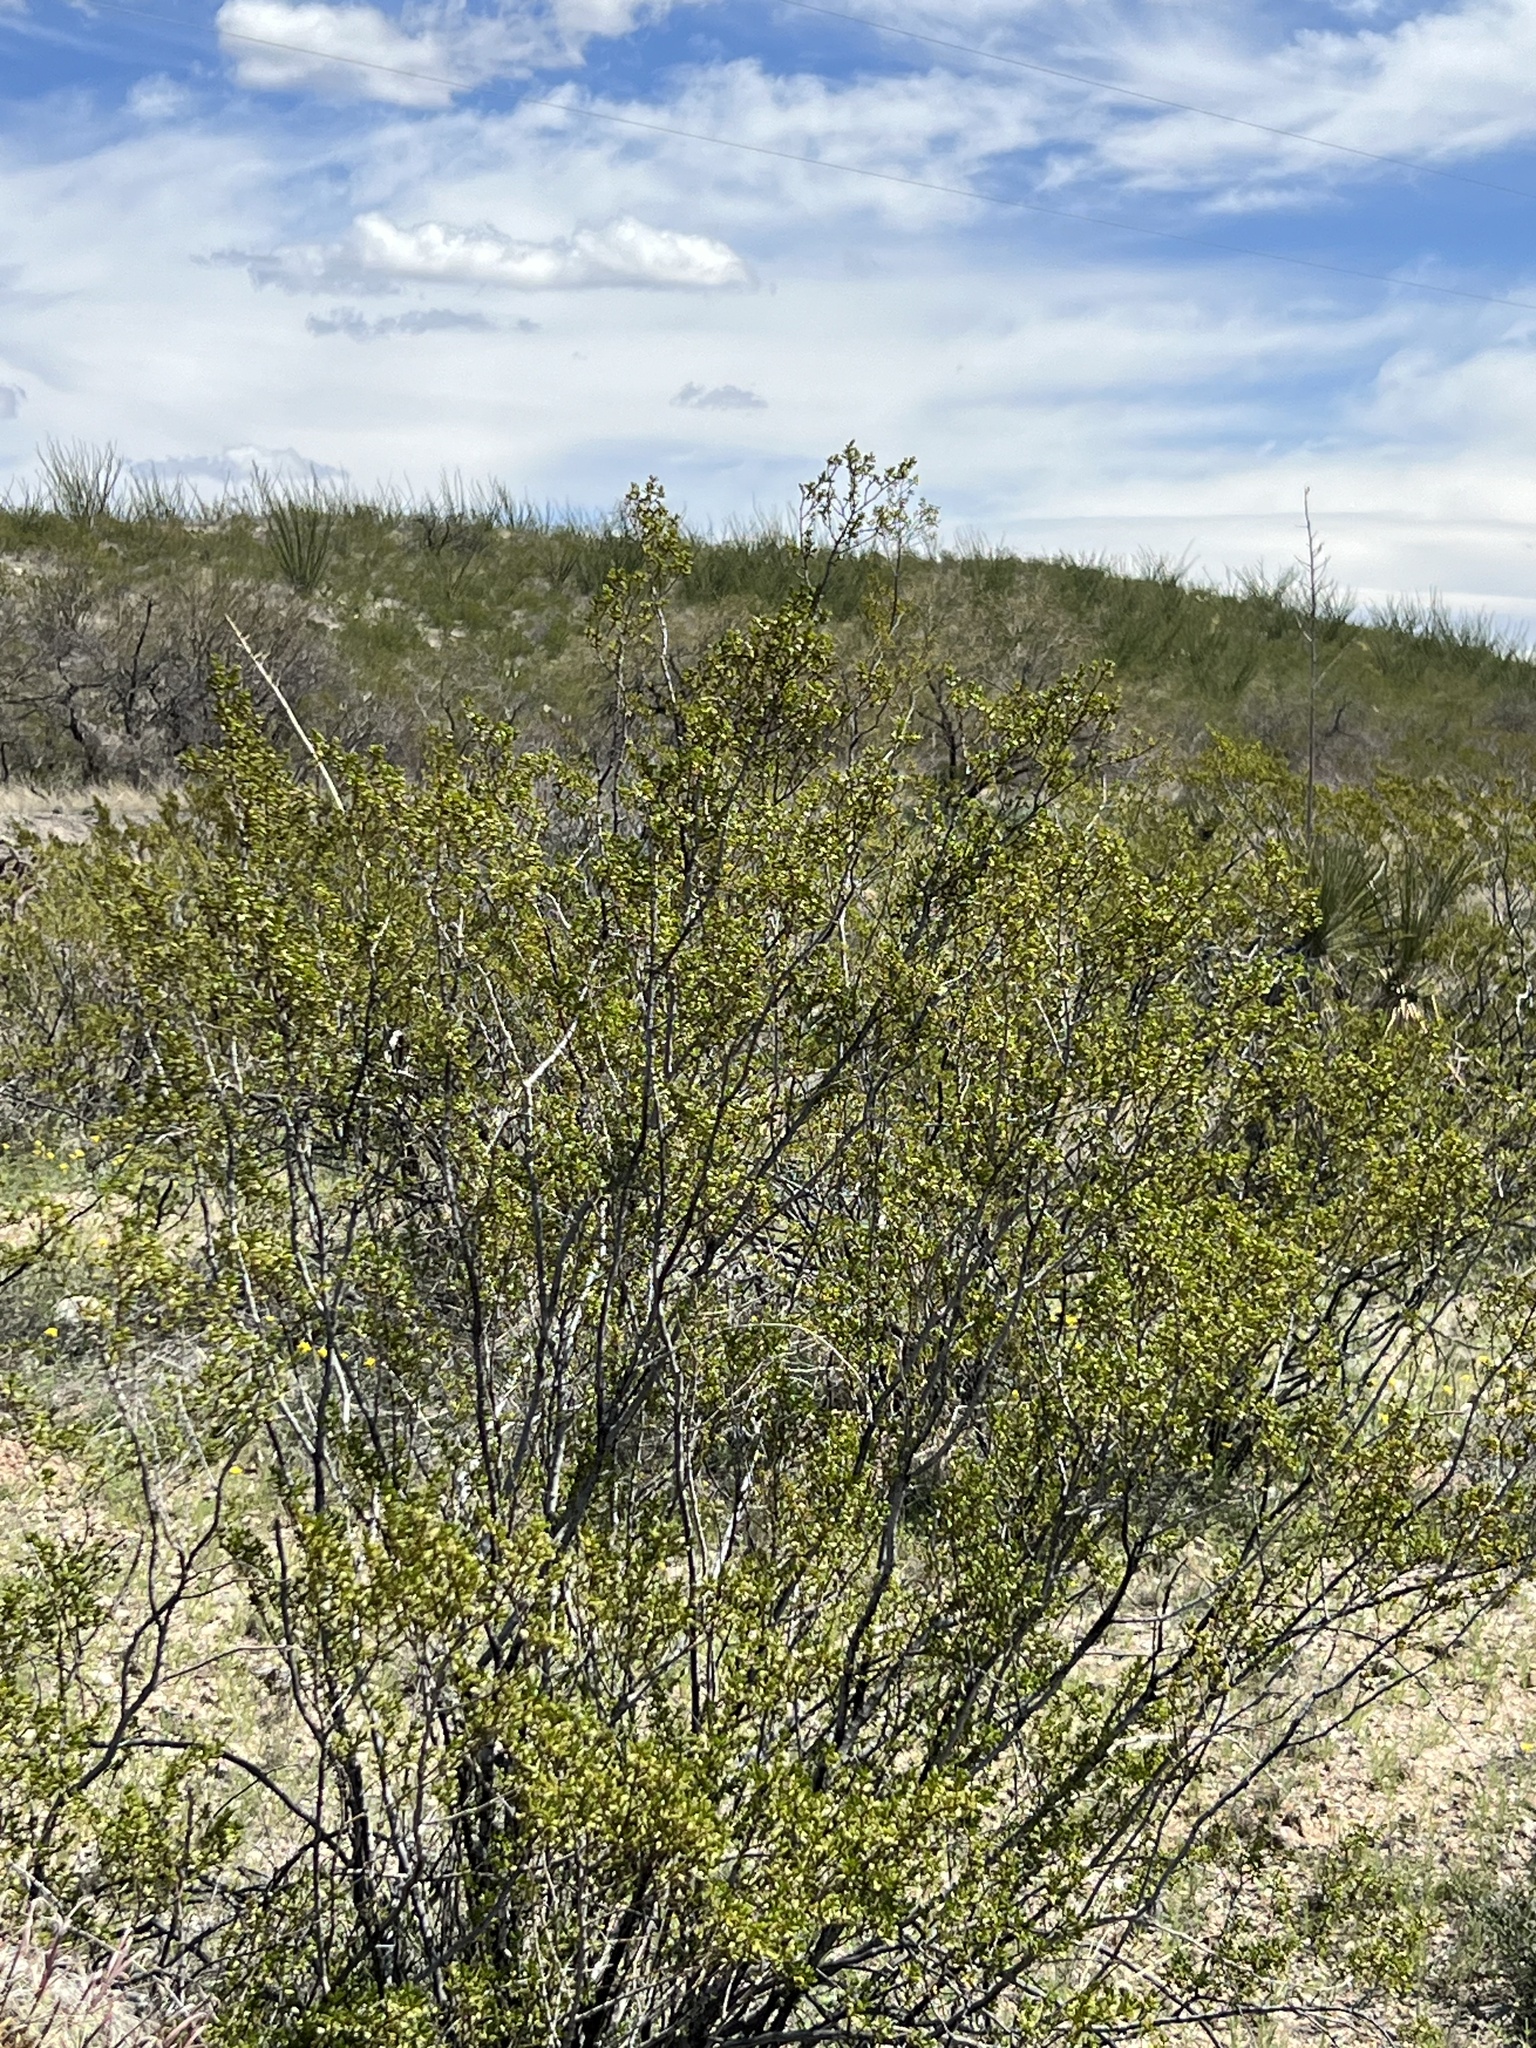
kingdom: Plantae
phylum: Tracheophyta
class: Magnoliopsida
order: Zygophyllales
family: Zygophyllaceae
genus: Larrea
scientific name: Larrea tridentata
